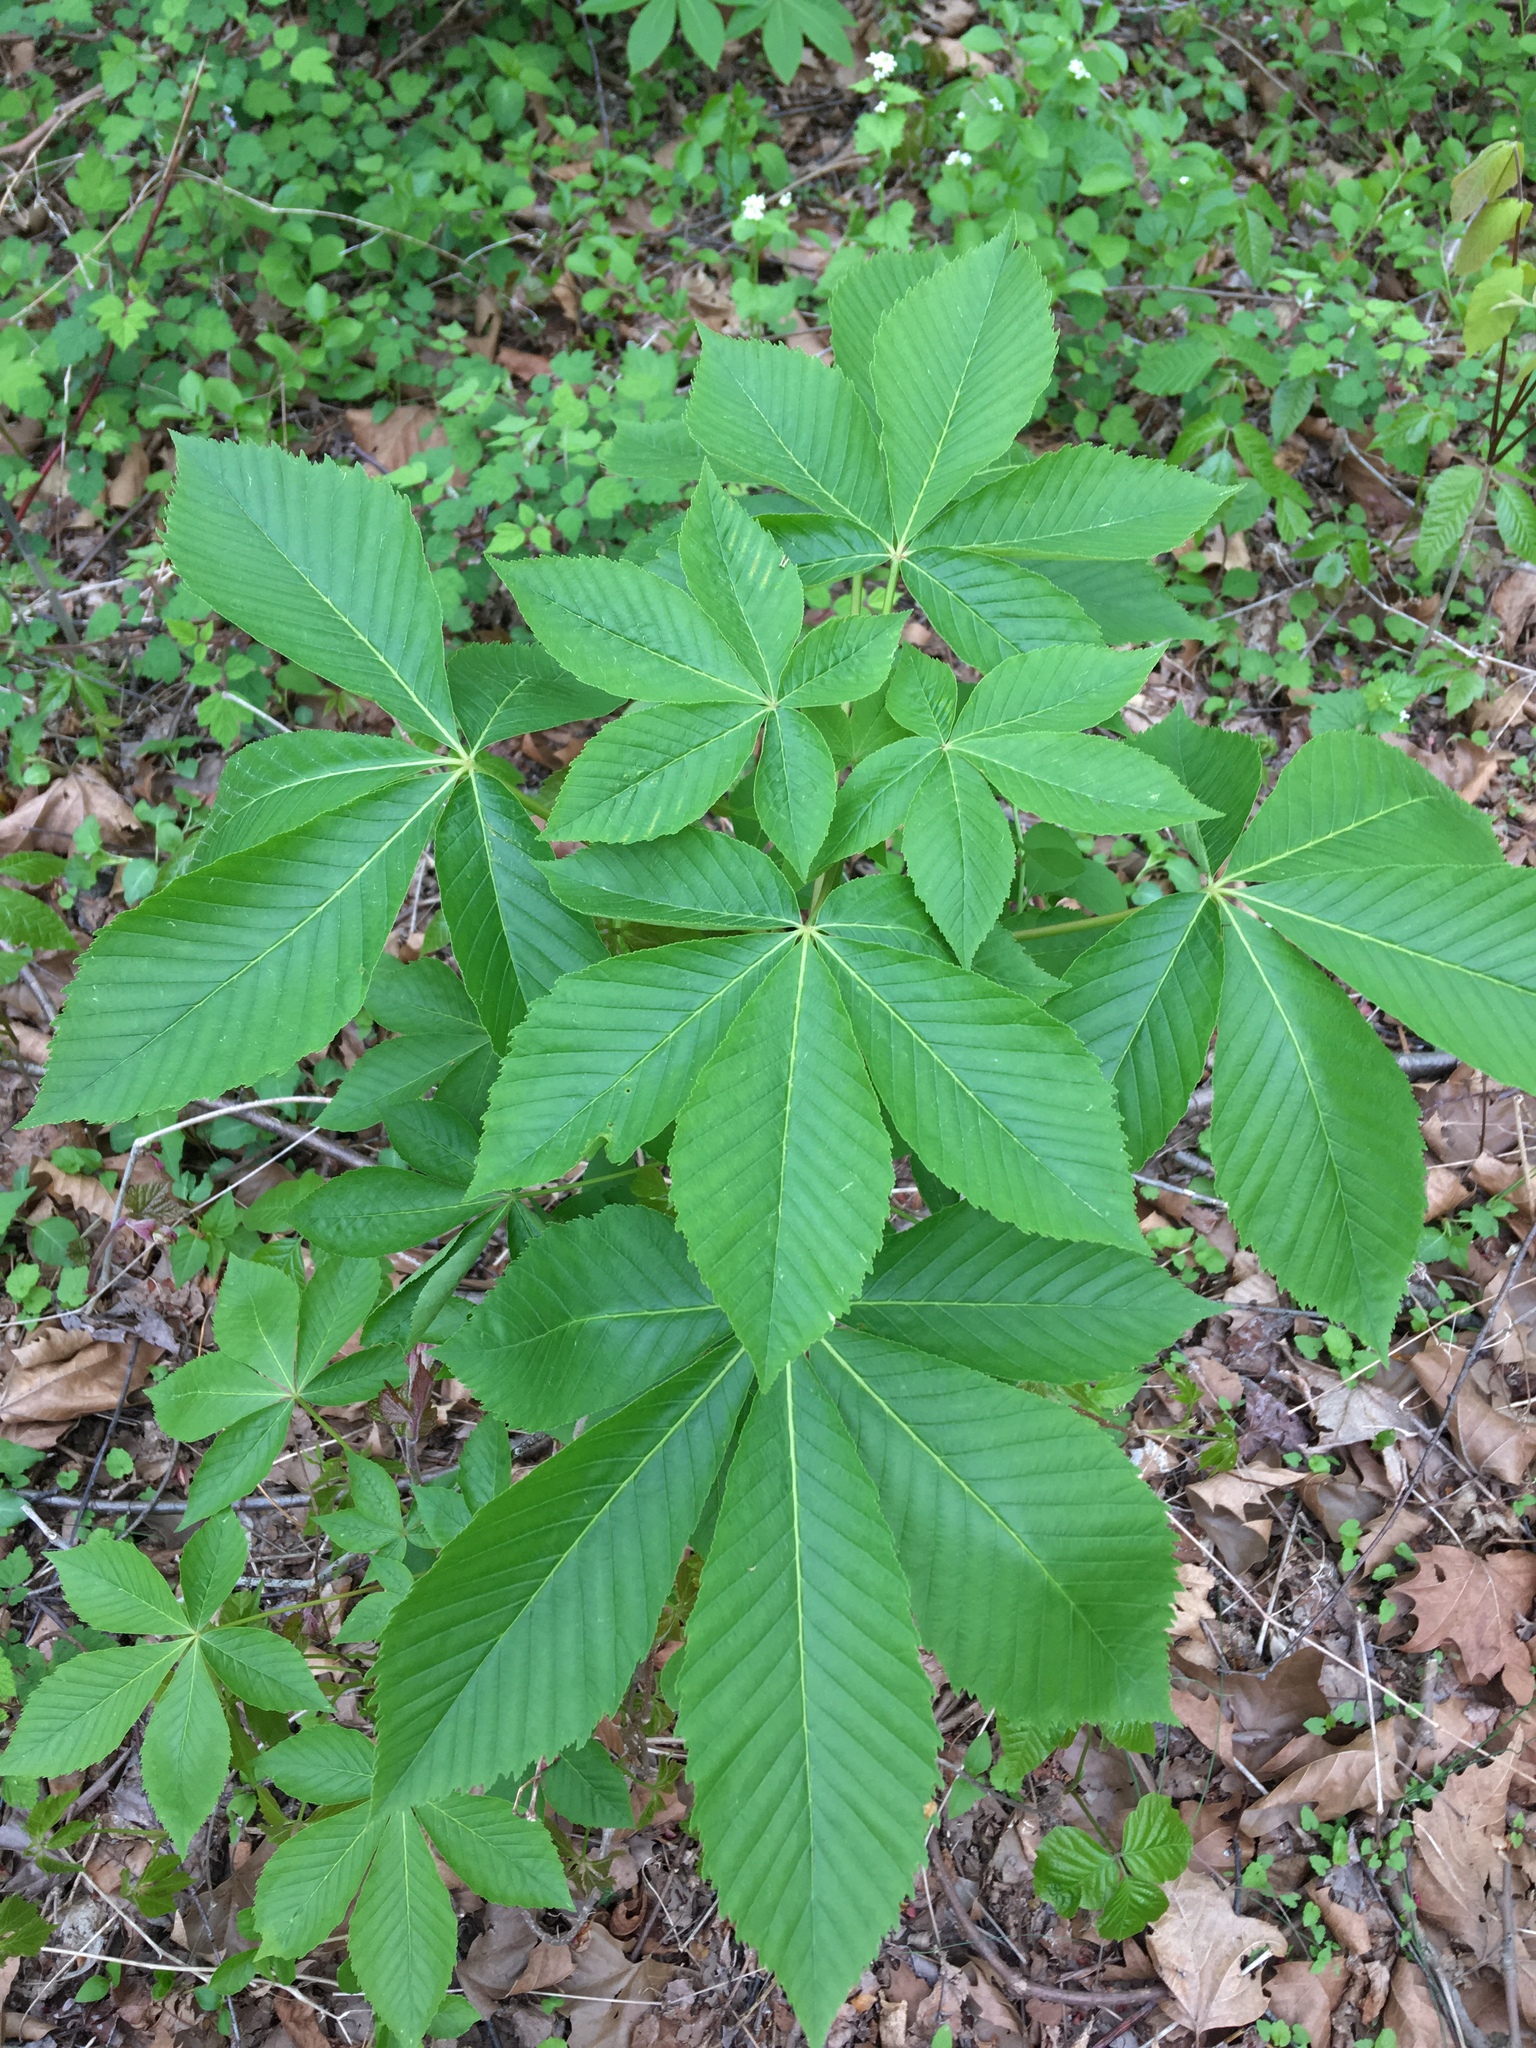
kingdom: Plantae
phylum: Tracheophyta
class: Magnoliopsida
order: Sapindales
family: Sapindaceae
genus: Aesculus
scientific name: Aesculus glabra
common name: Ohio buckeye
